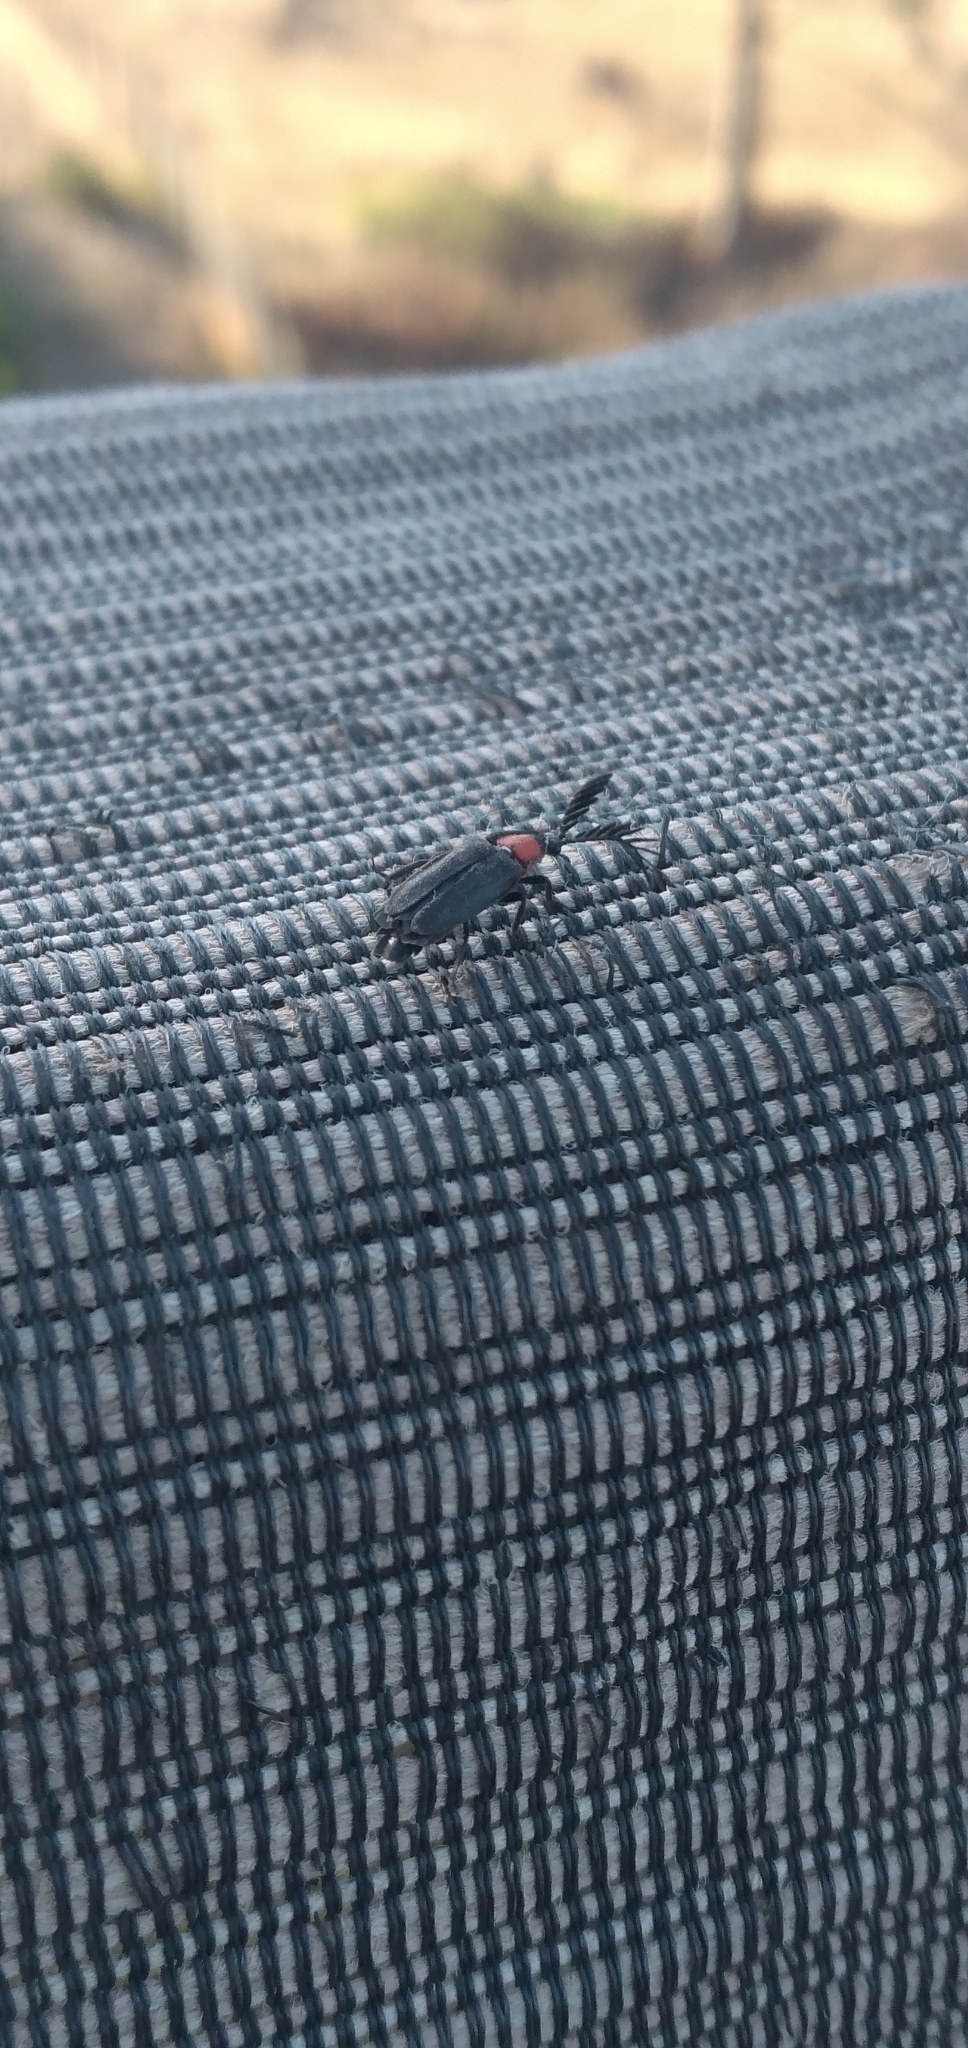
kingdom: Animalia
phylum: Arthropoda
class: Insecta
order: Coleoptera
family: Lampyridae
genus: Vesta
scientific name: Vesta cincticollis
